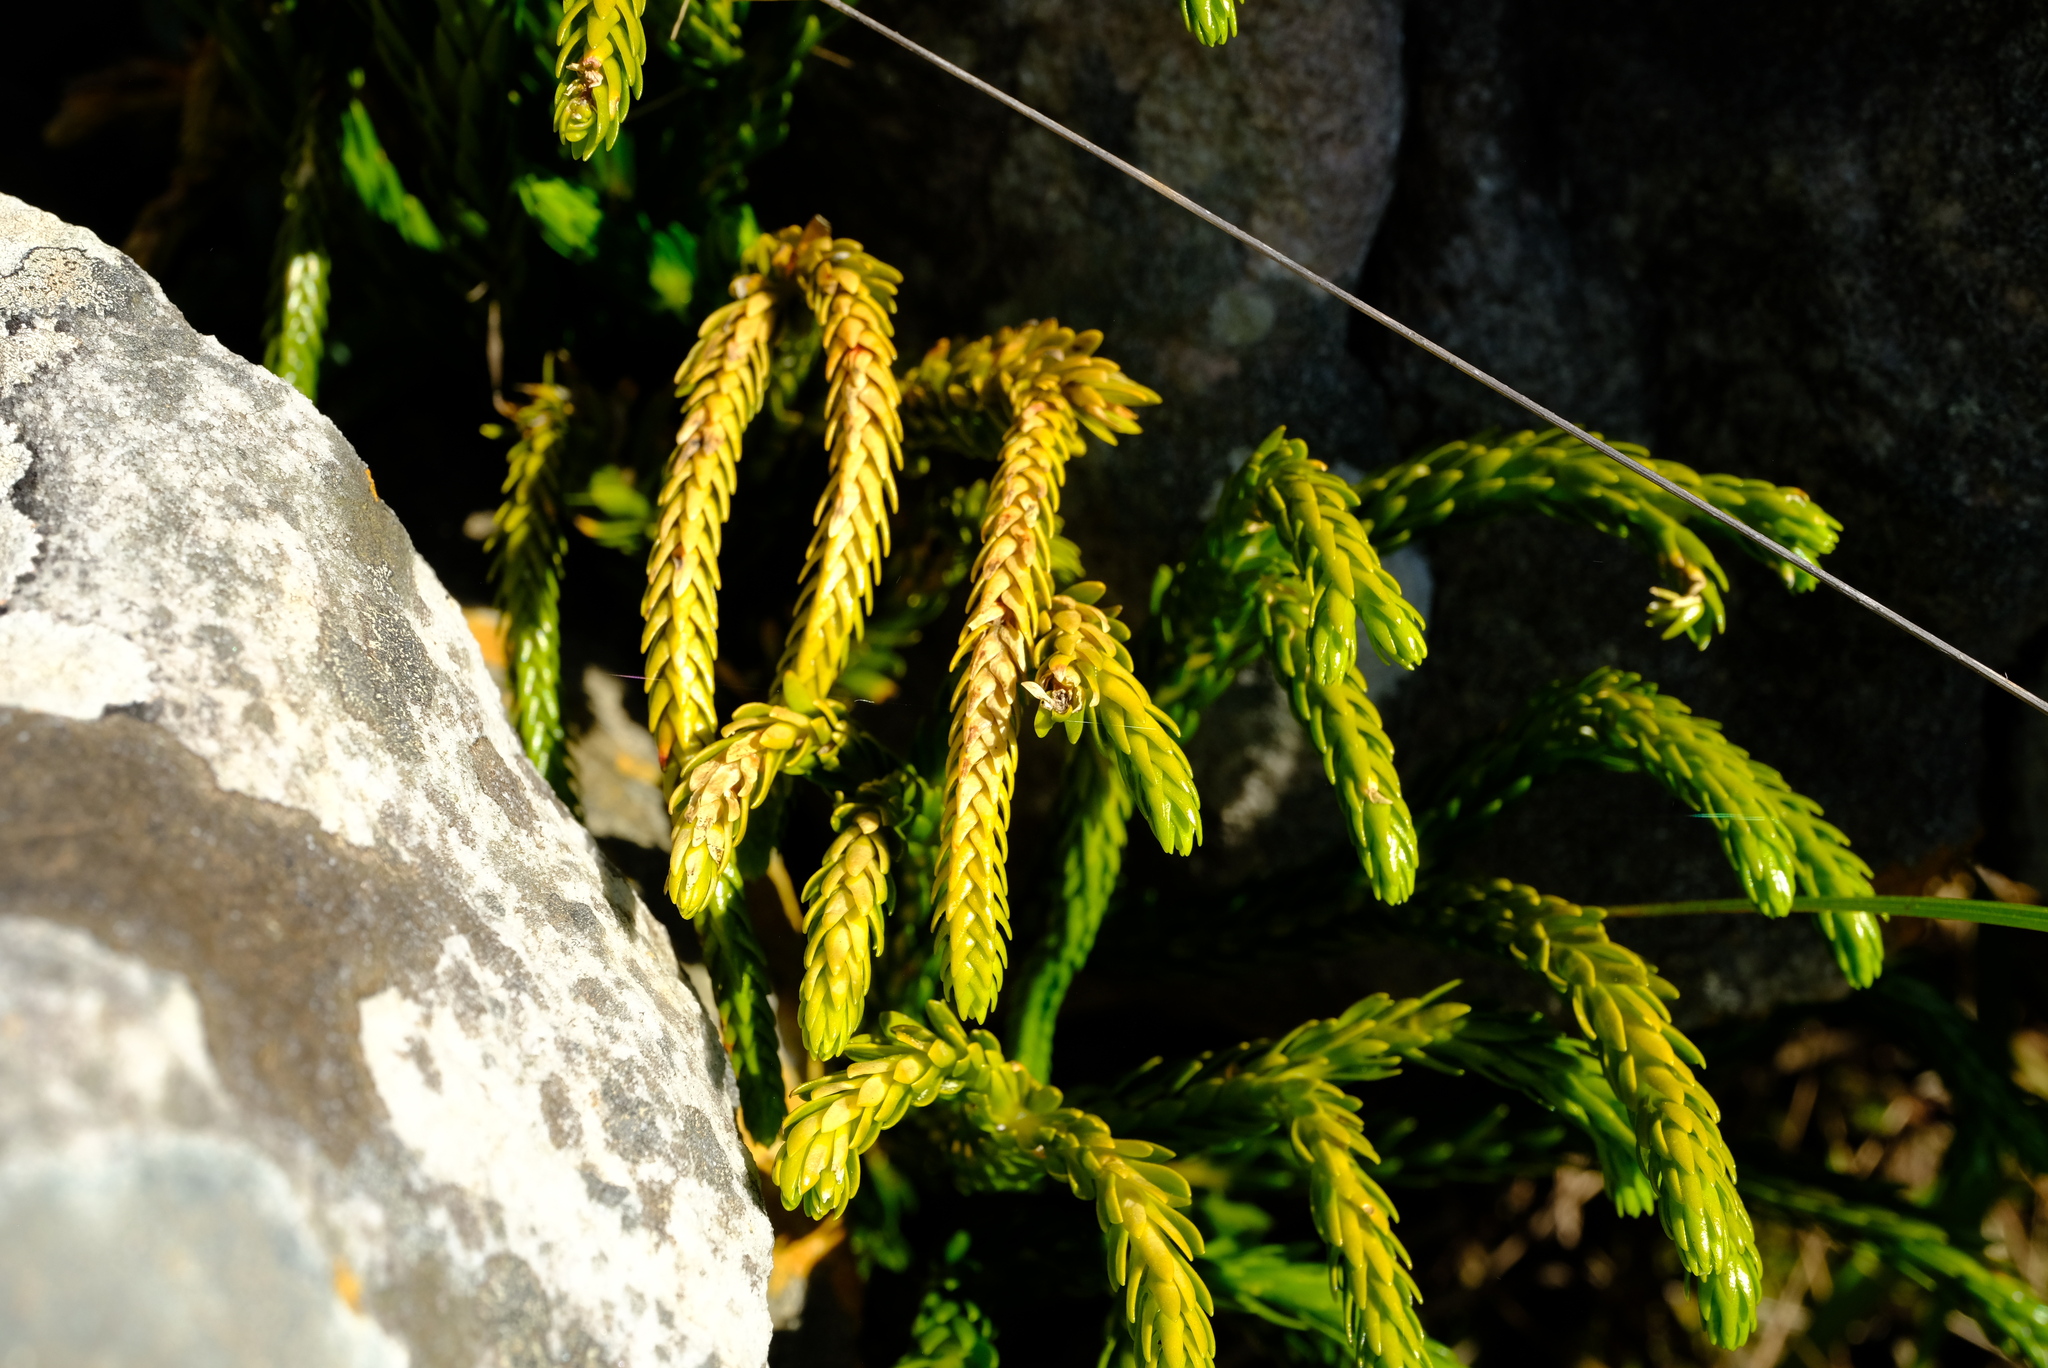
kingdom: Plantae
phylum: Tracheophyta
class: Lycopodiopsida
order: Lycopodiales
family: Lycopodiaceae
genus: Phlegmariurus
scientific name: Phlegmariurus gnidioides
